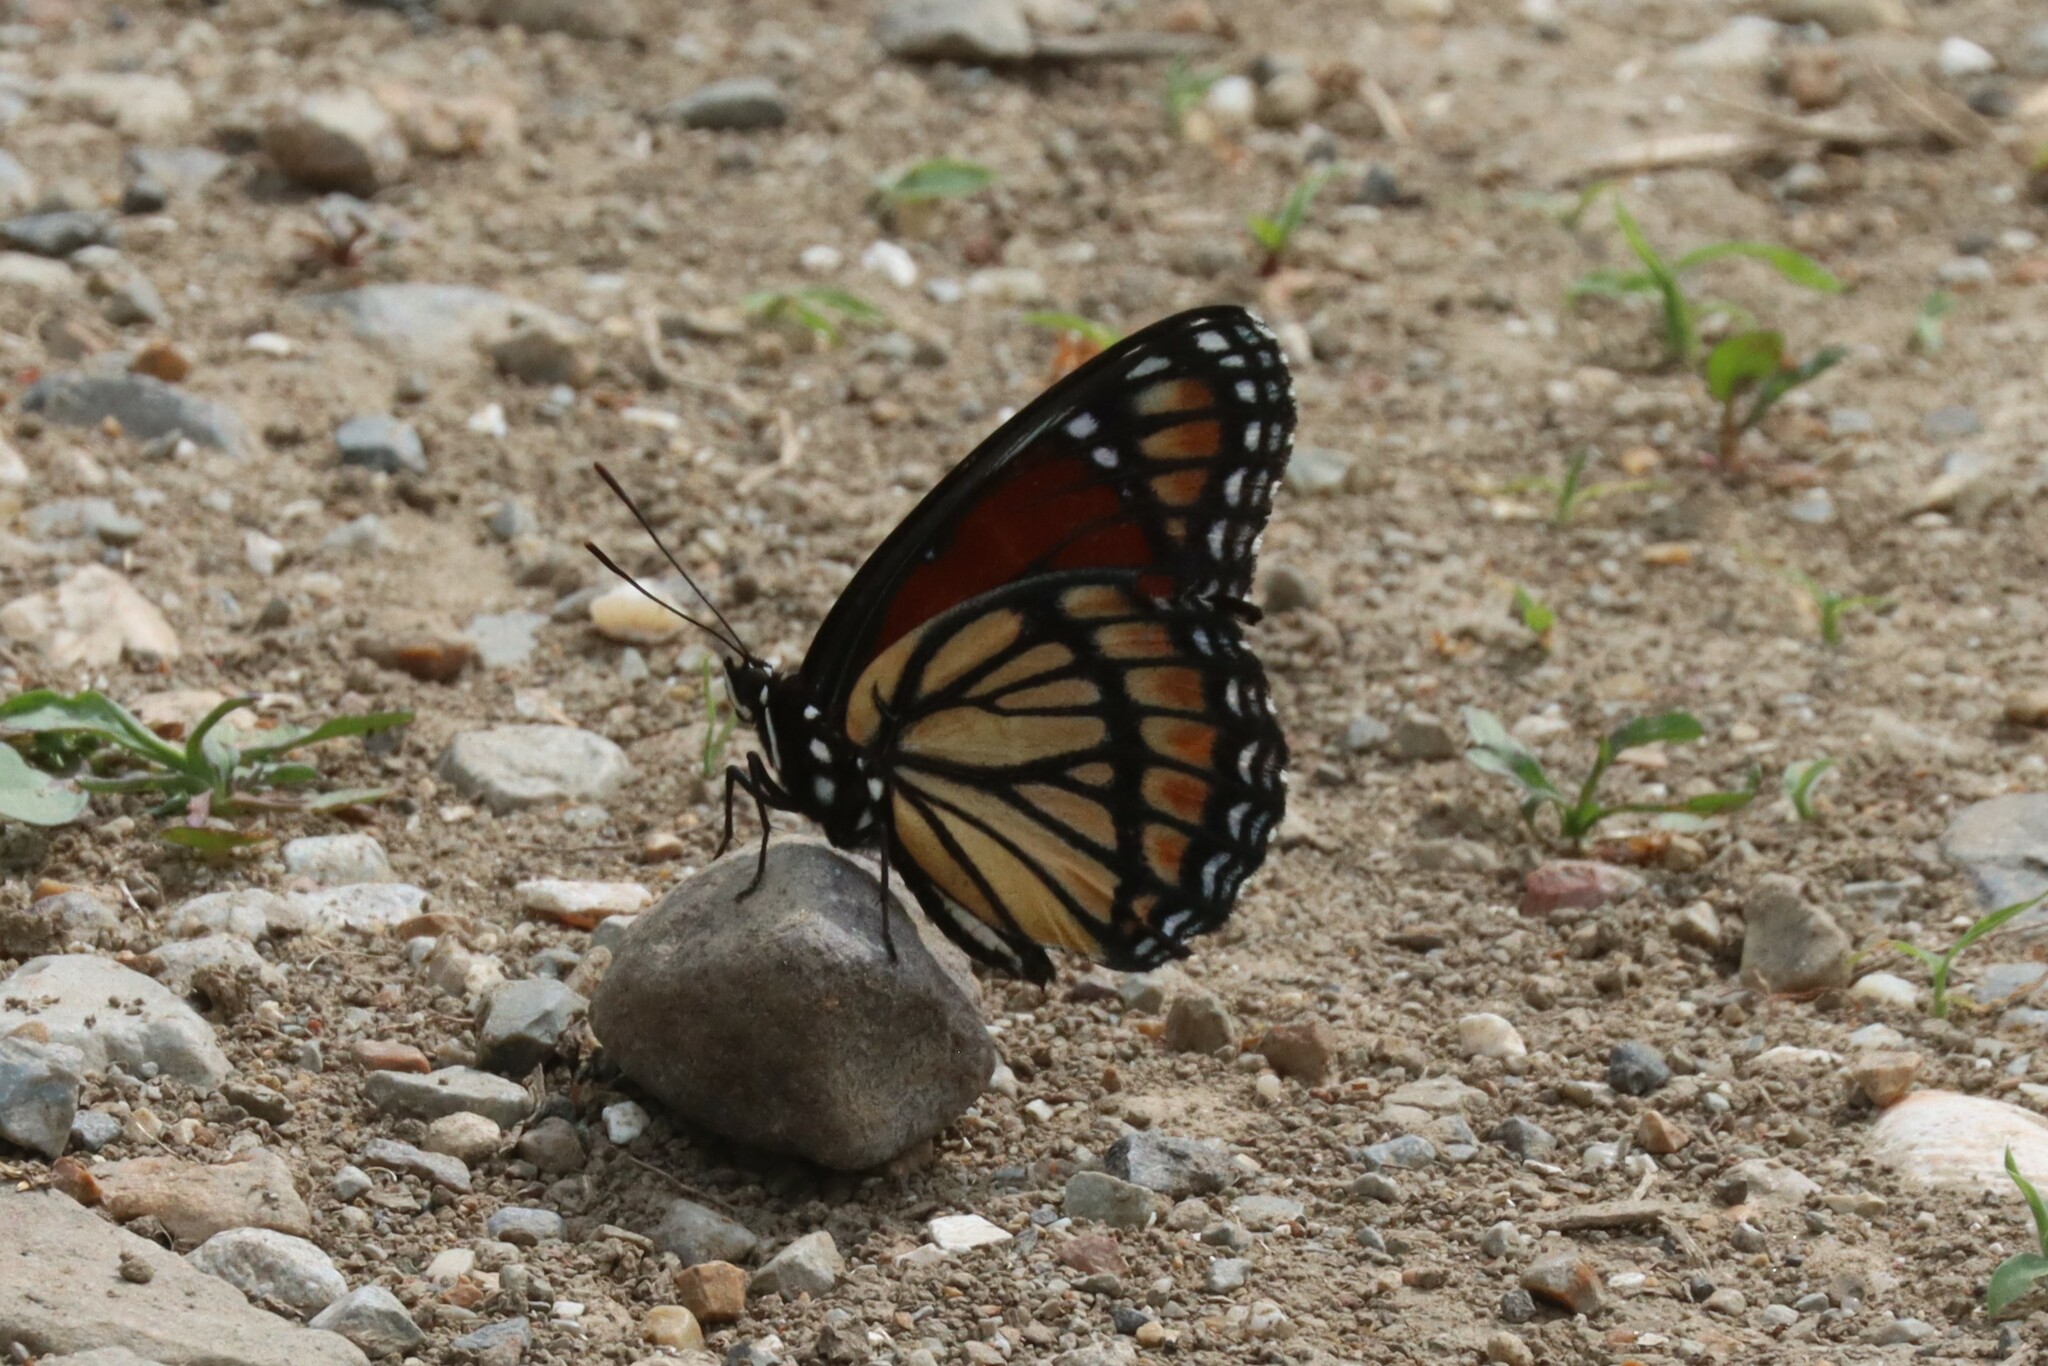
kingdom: Animalia
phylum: Arthropoda
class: Insecta
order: Lepidoptera
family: Nymphalidae
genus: Limenitis
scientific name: Limenitis archippus
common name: Viceroy
